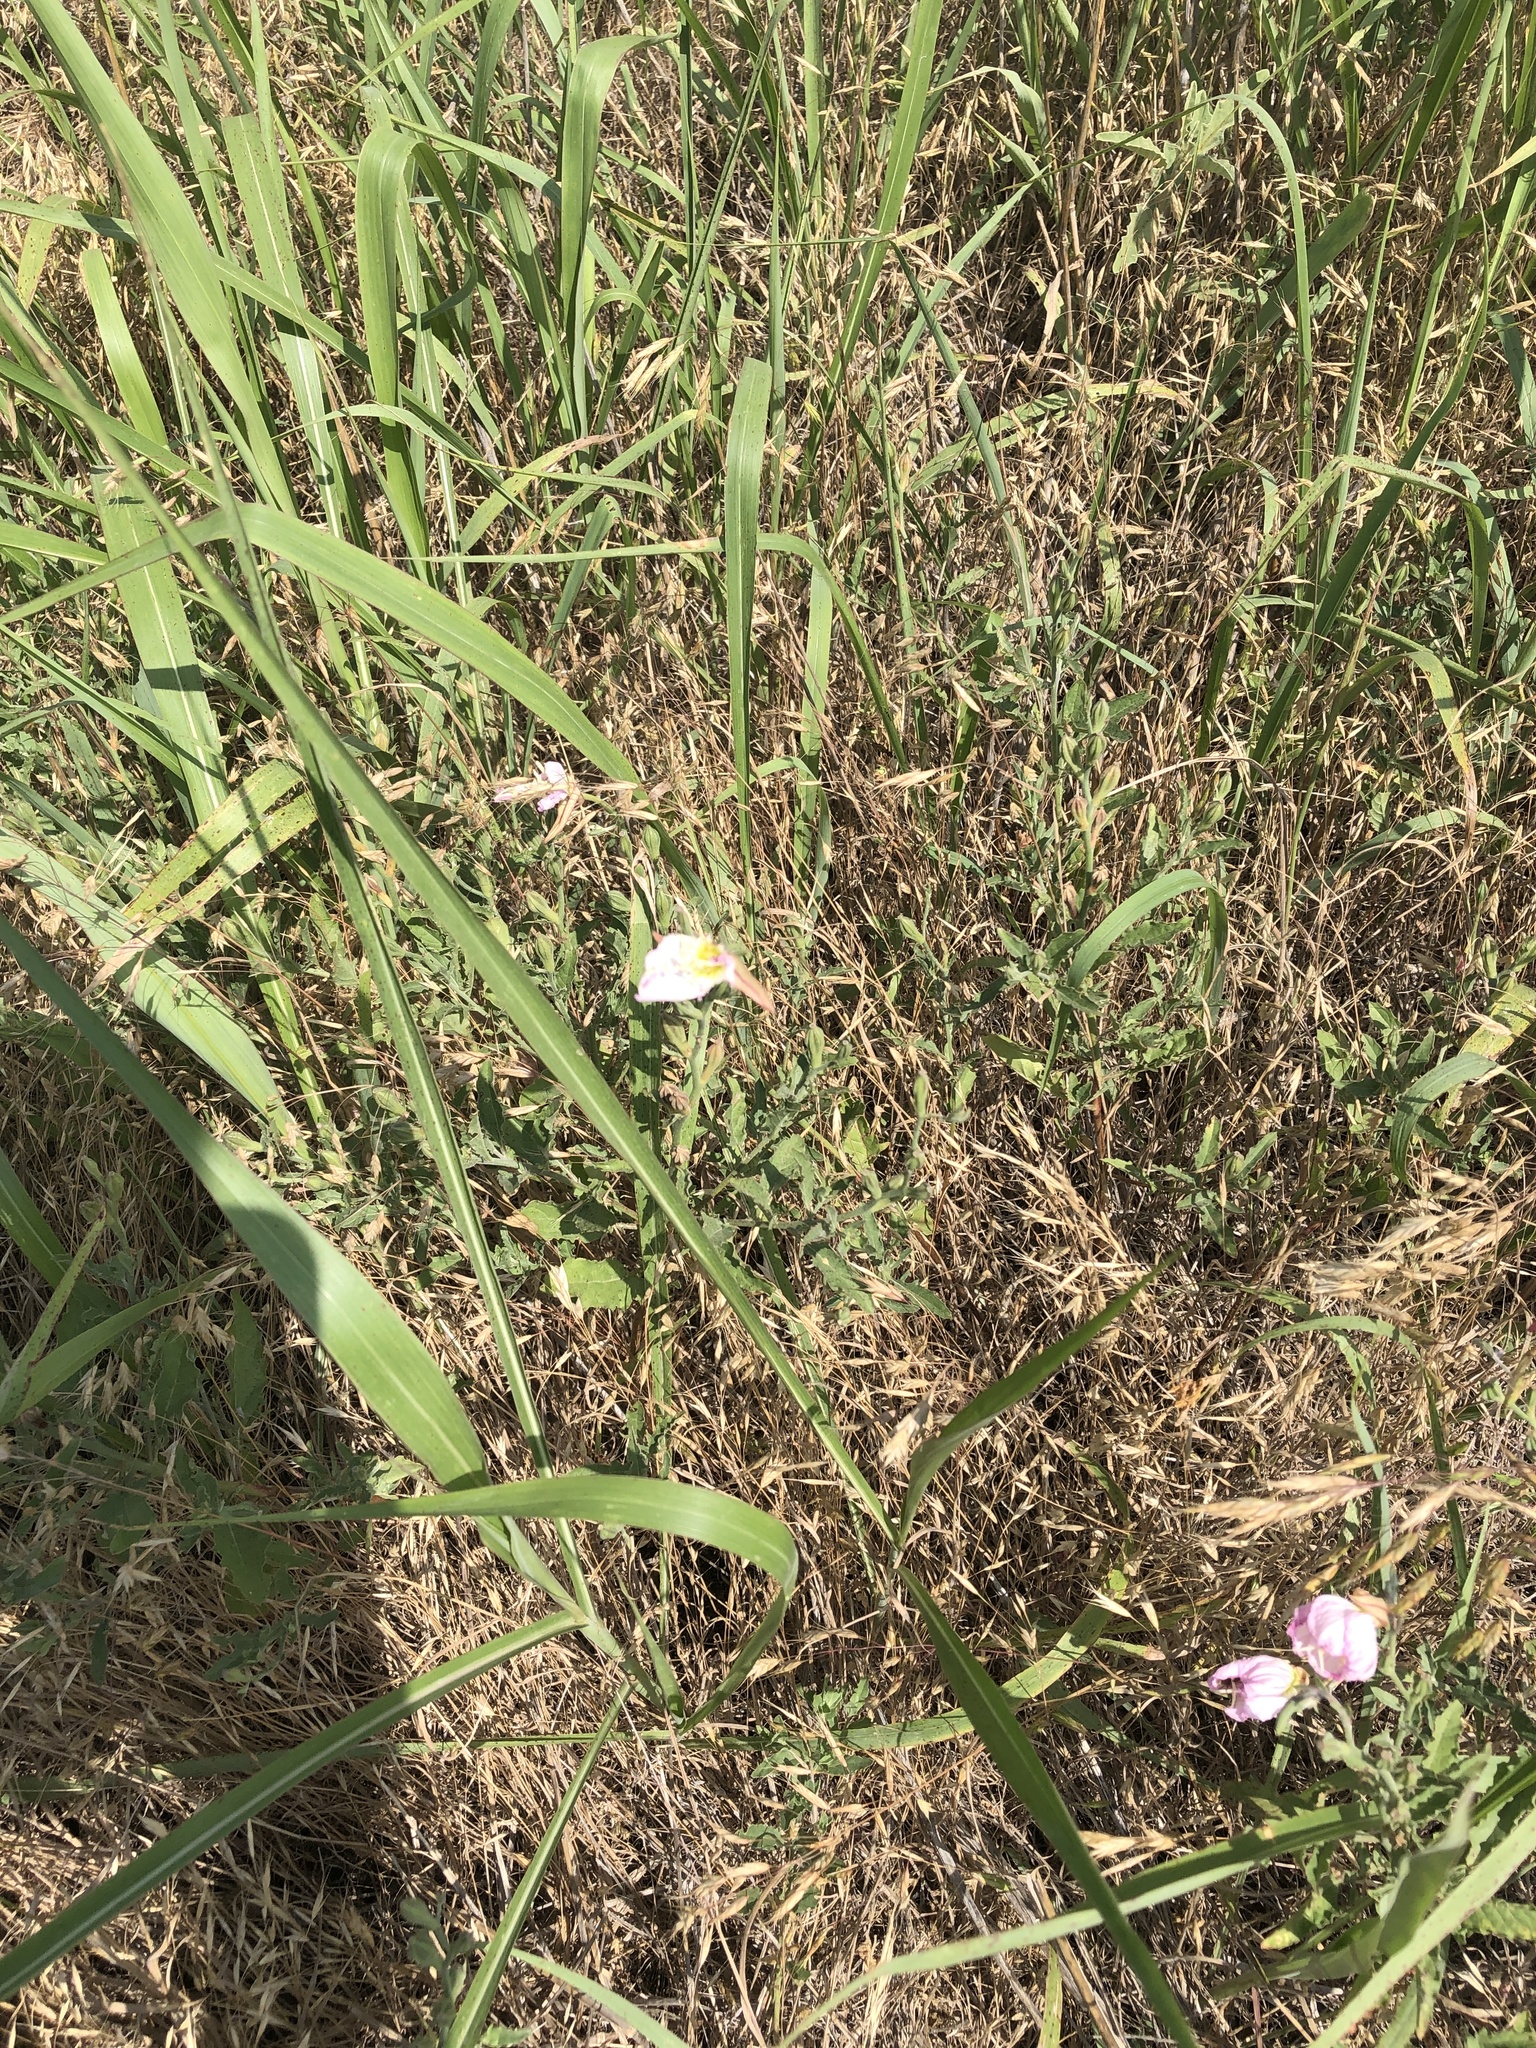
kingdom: Plantae
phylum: Tracheophyta
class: Magnoliopsida
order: Myrtales
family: Onagraceae
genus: Oenothera
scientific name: Oenothera speciosa
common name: White evening-primrose
